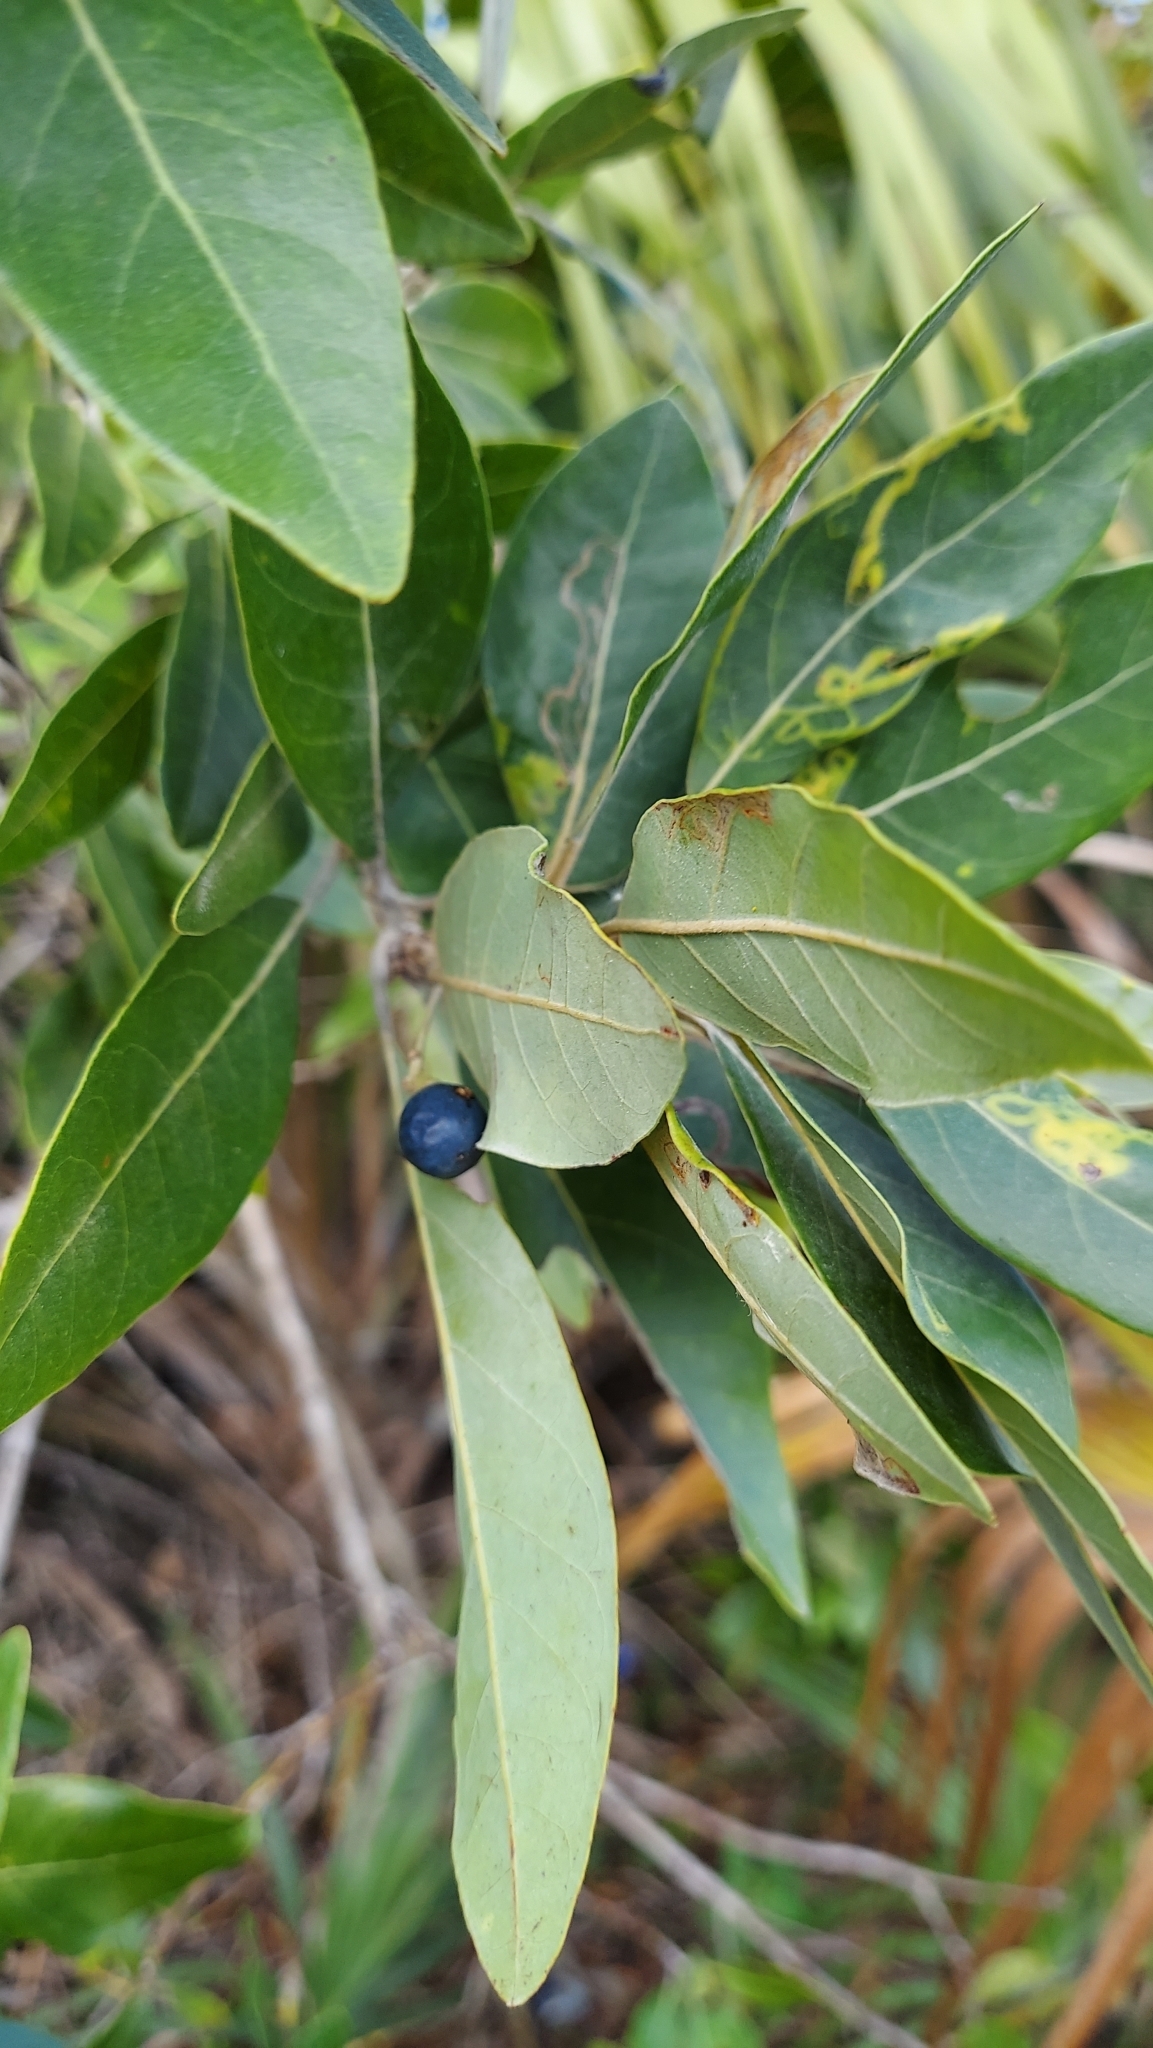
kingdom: Plantae
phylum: Tracheophyta
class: Magnoliopsida
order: Laurales
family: Lauraceae
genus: Persea
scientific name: Persea palustris
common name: Swampbay
